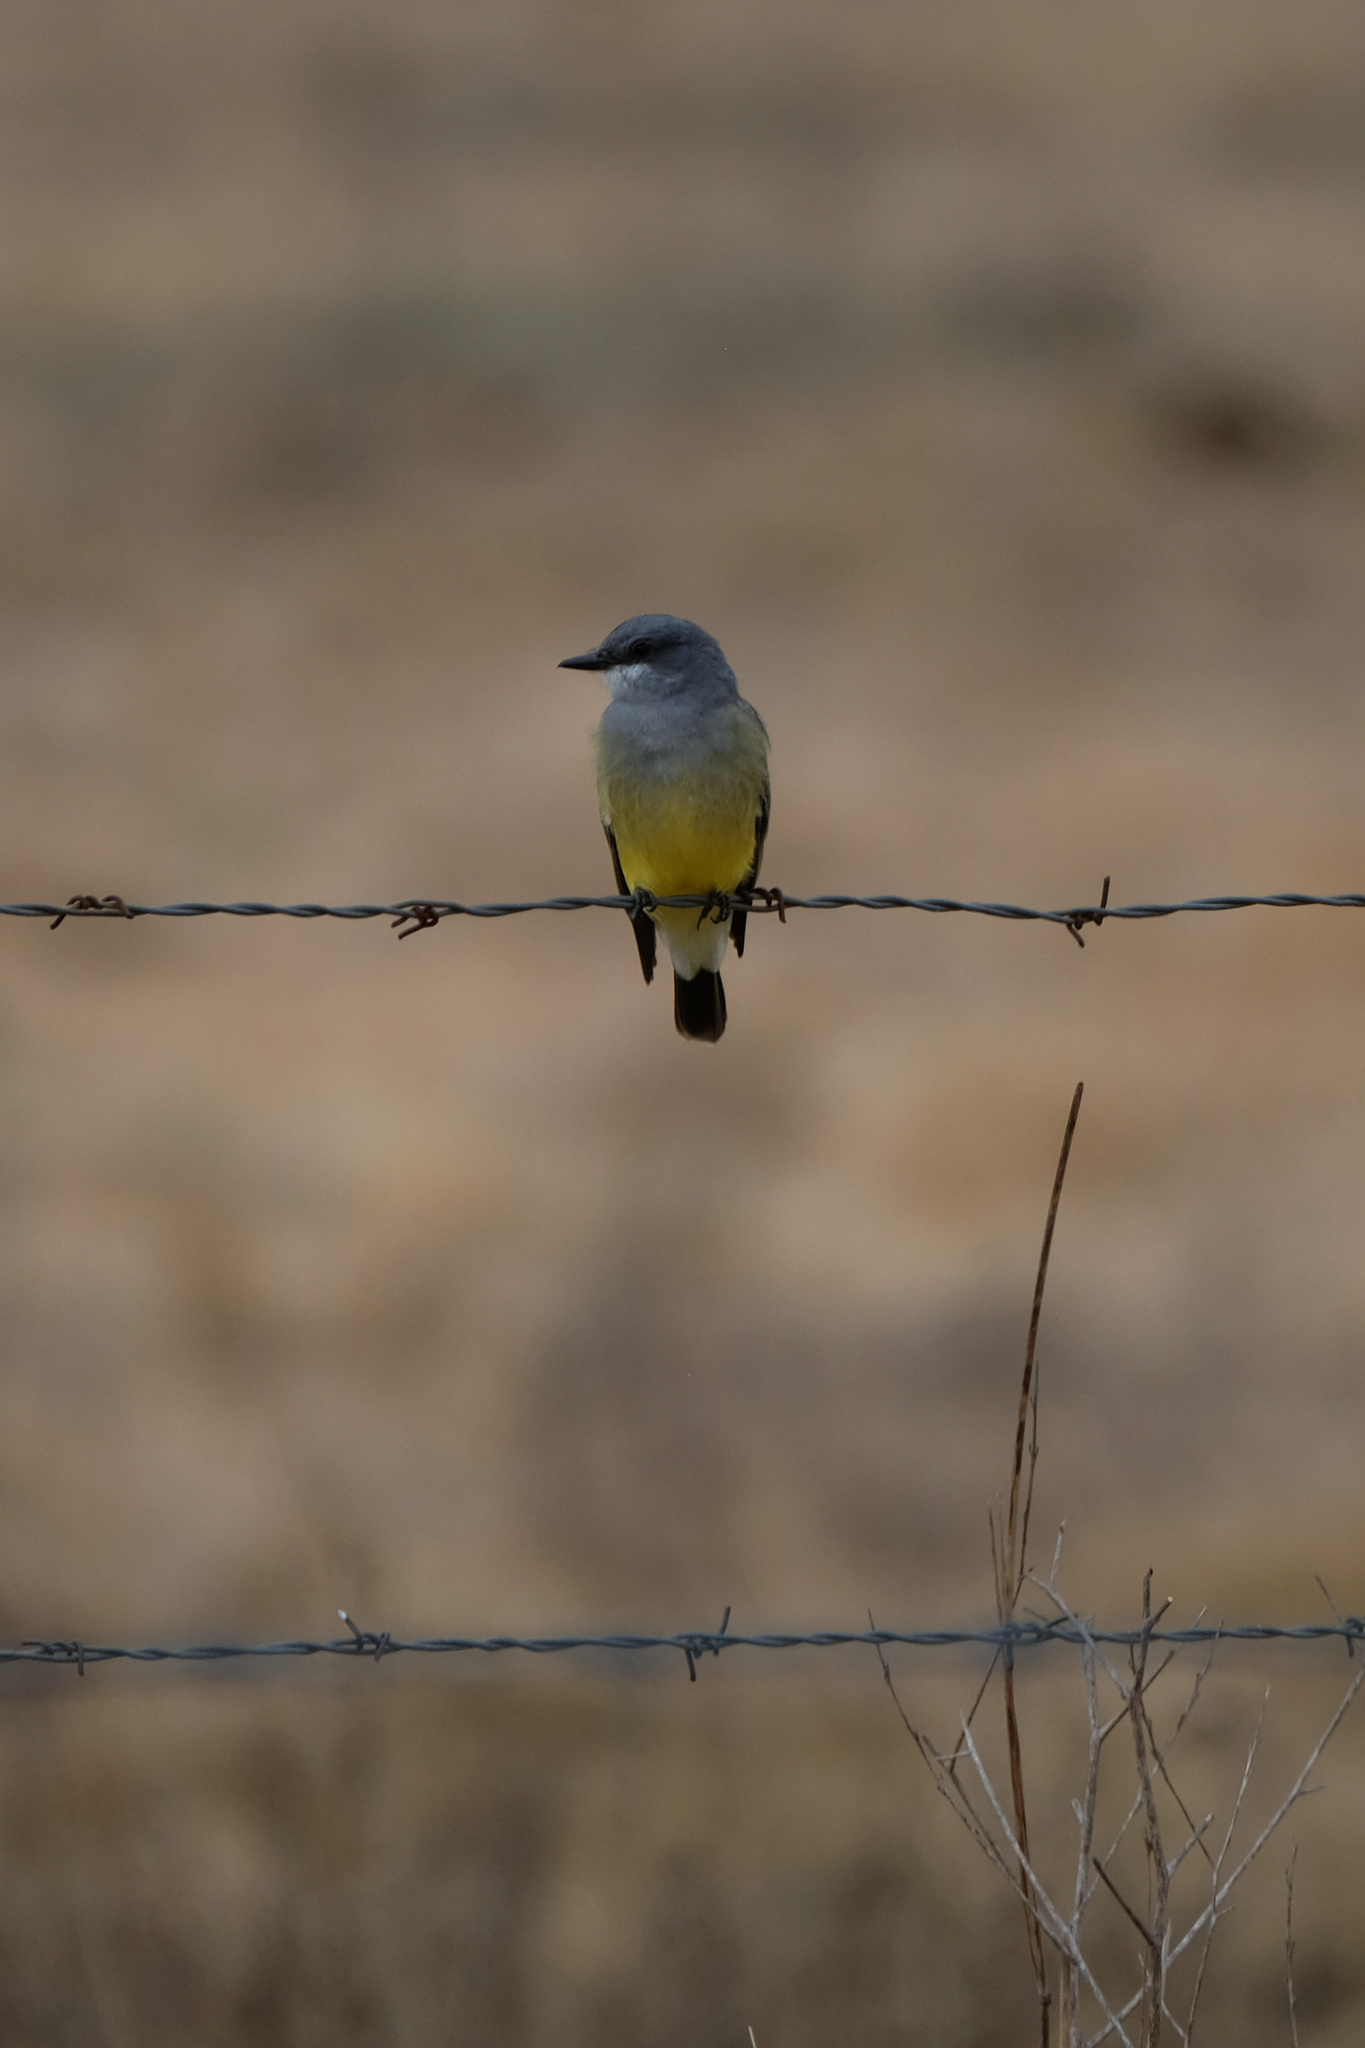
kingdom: Animalia
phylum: Chordata
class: Aves
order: Passeriformes
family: Tyrannidae
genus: Tyrannus
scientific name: Tyrannus vociferans
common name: Cassin's kingbird
